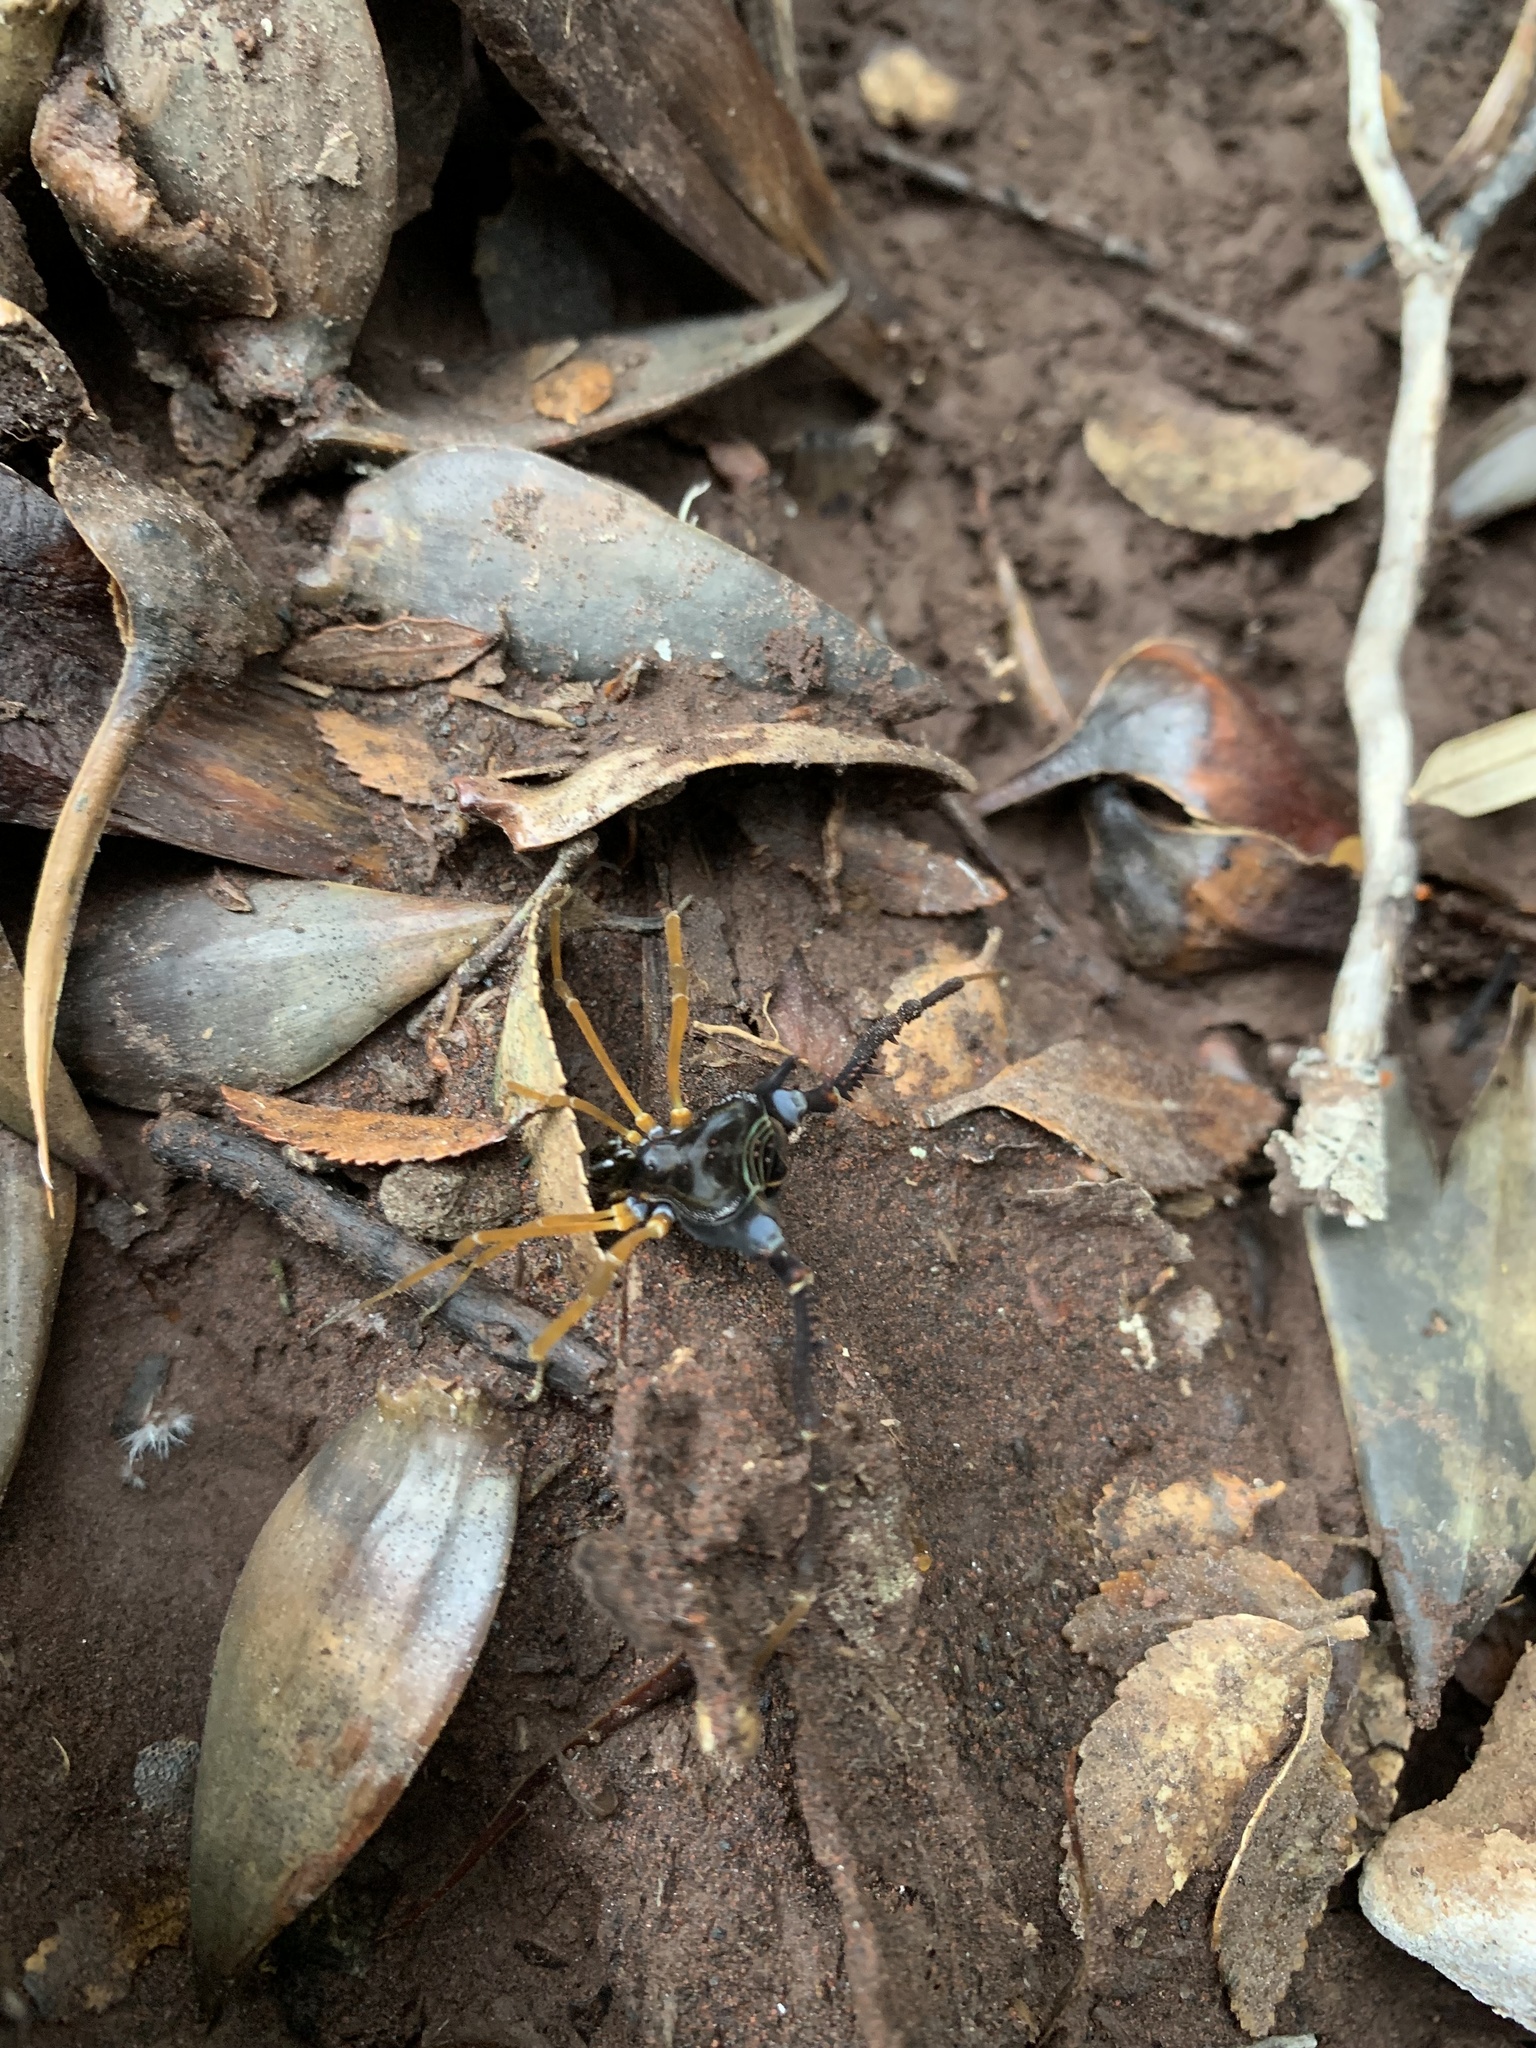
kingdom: Animalia
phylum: Arthropoda
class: Arachnida
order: Opiliones
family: Gonyleptidae
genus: Sadocus
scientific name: Sadocus asperatus
